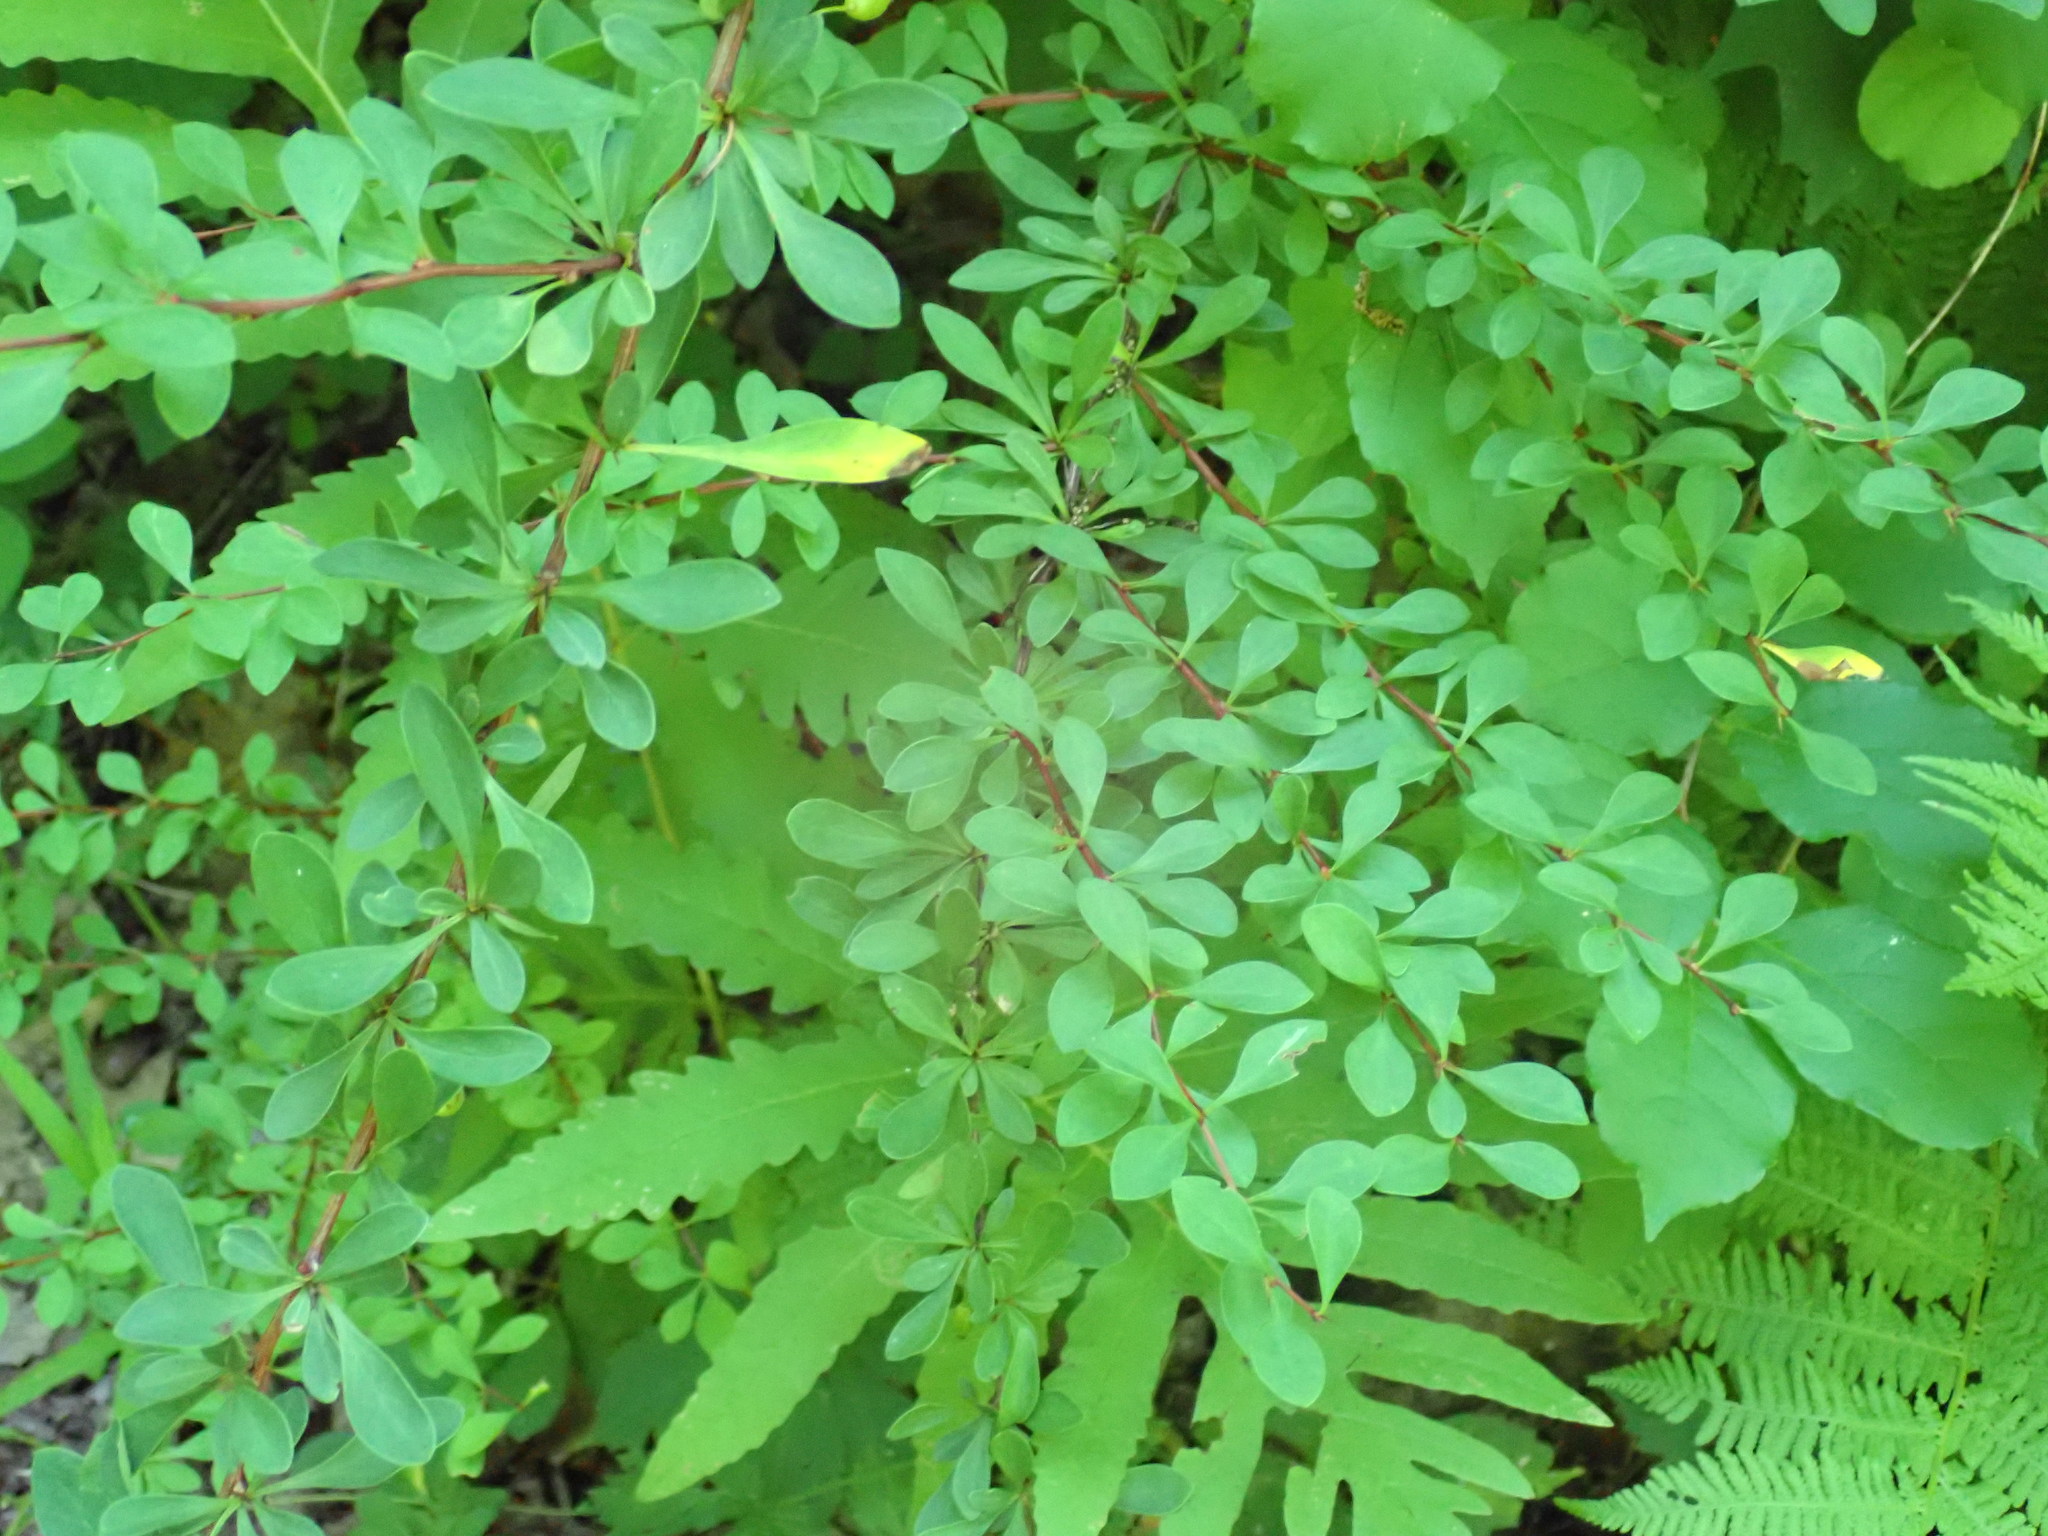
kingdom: Plantae
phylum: Tracheophyta
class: Magnoliopsida
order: Ranunculales
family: Berberidaceae
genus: Berberis
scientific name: Berberis thunbergii
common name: Japanese barberry
